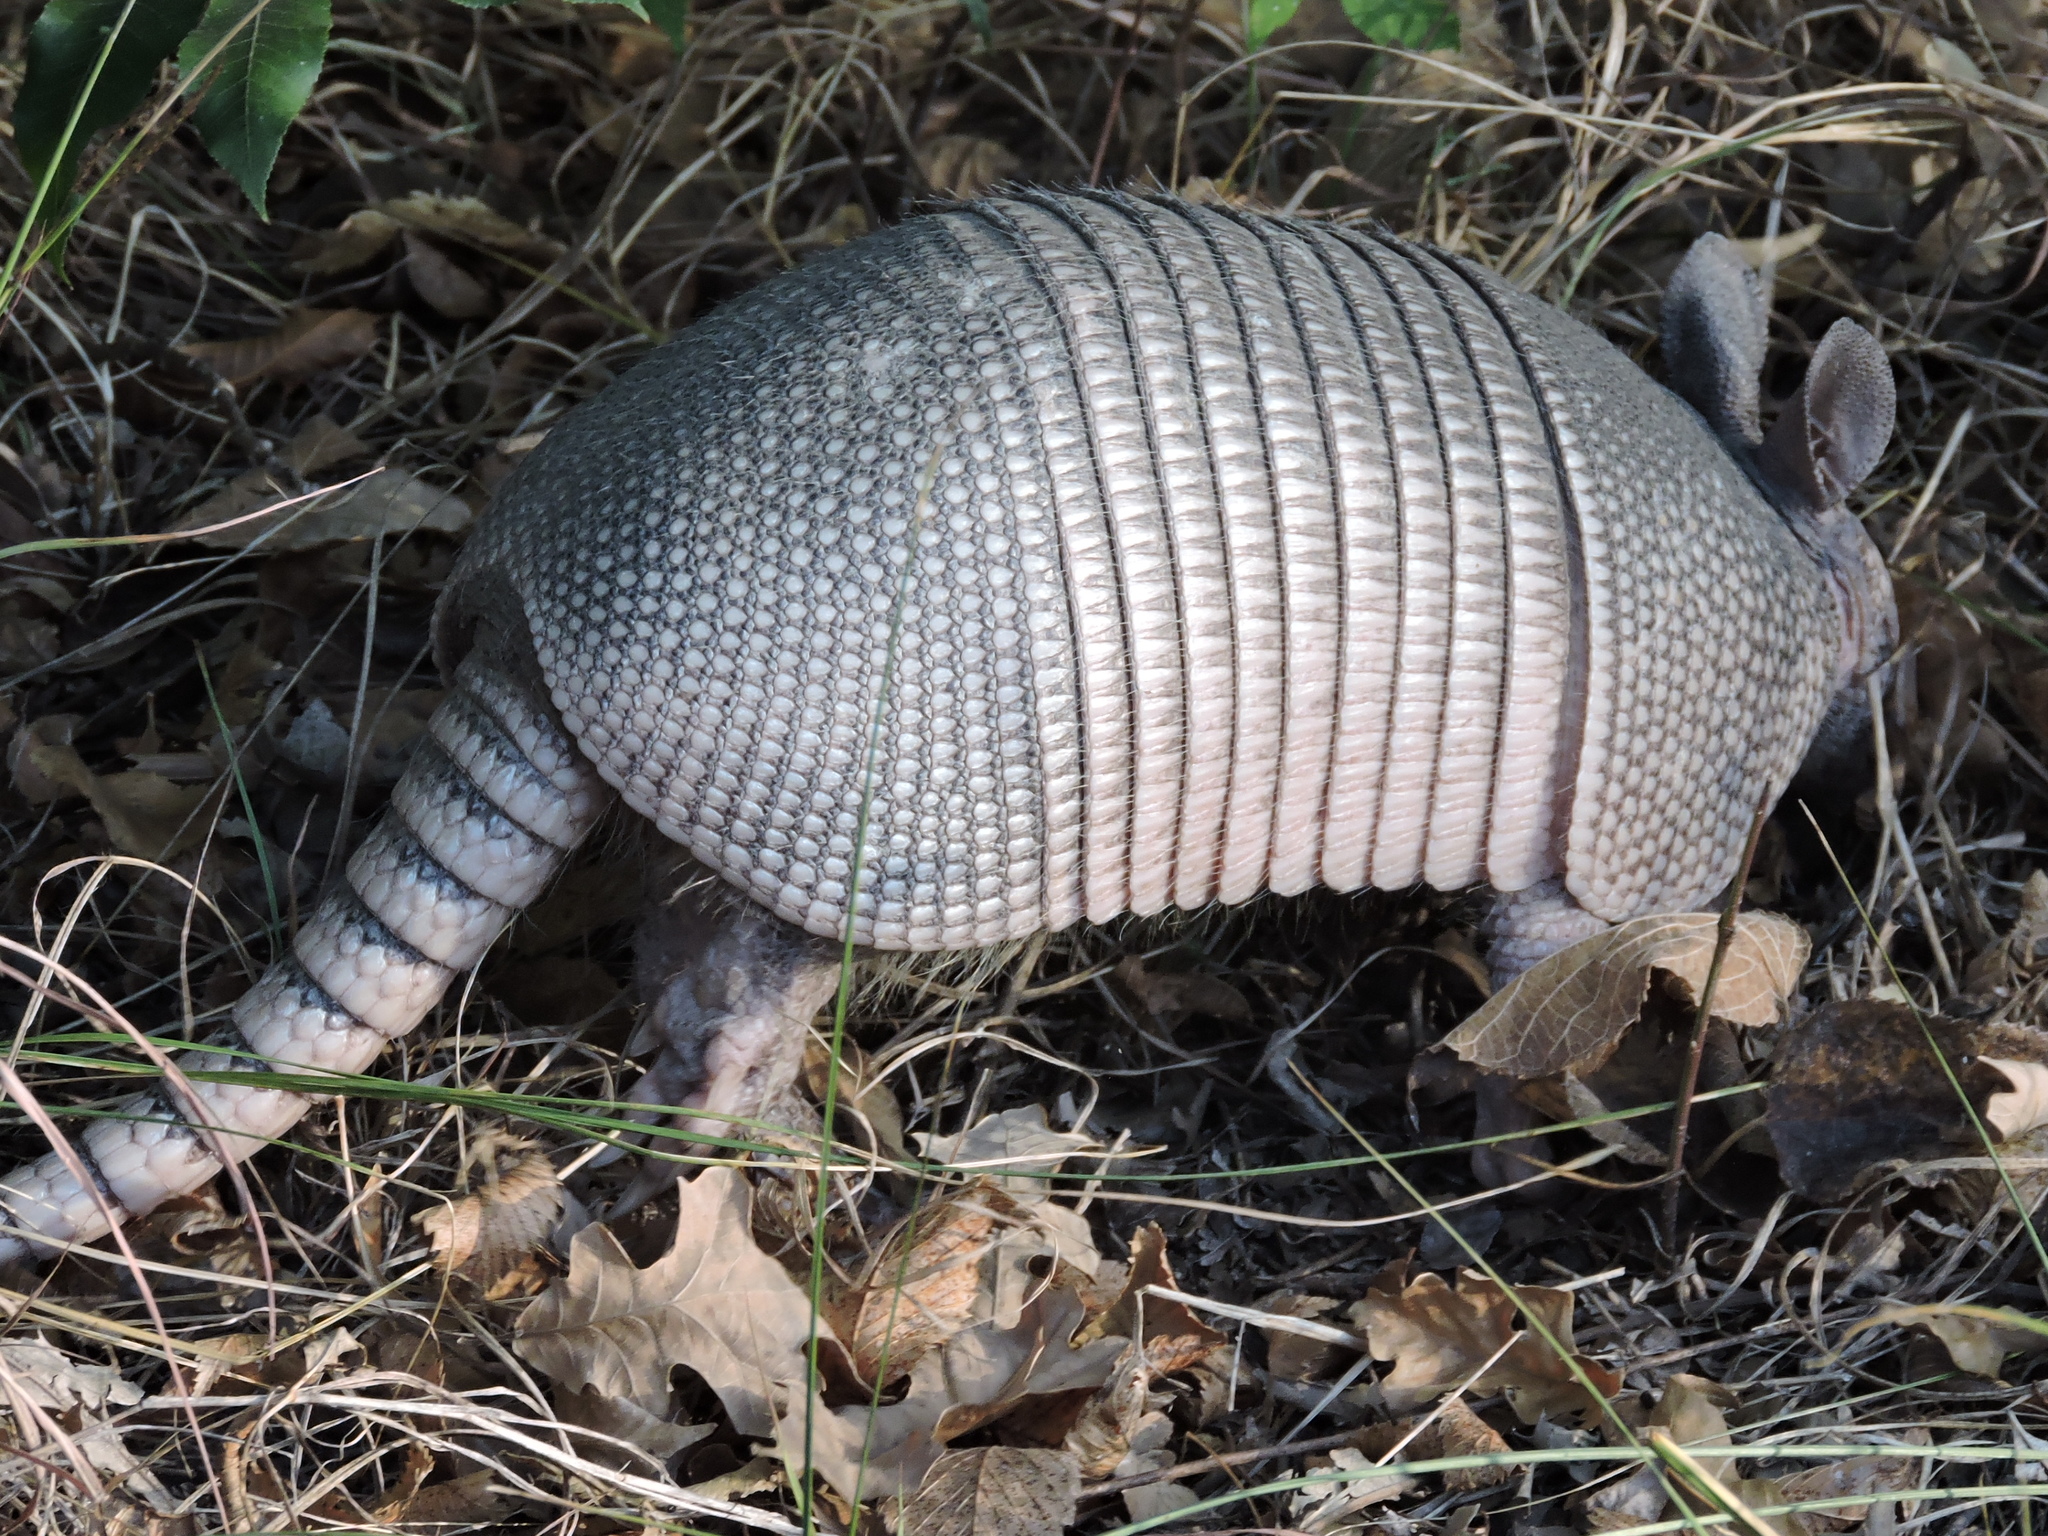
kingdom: Animalia
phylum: Chordata
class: Mammalia
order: Cingulata
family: Dasypodidae
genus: Dasypus
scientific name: Dasypus novemcinctus
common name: Nine-banded armadillo
